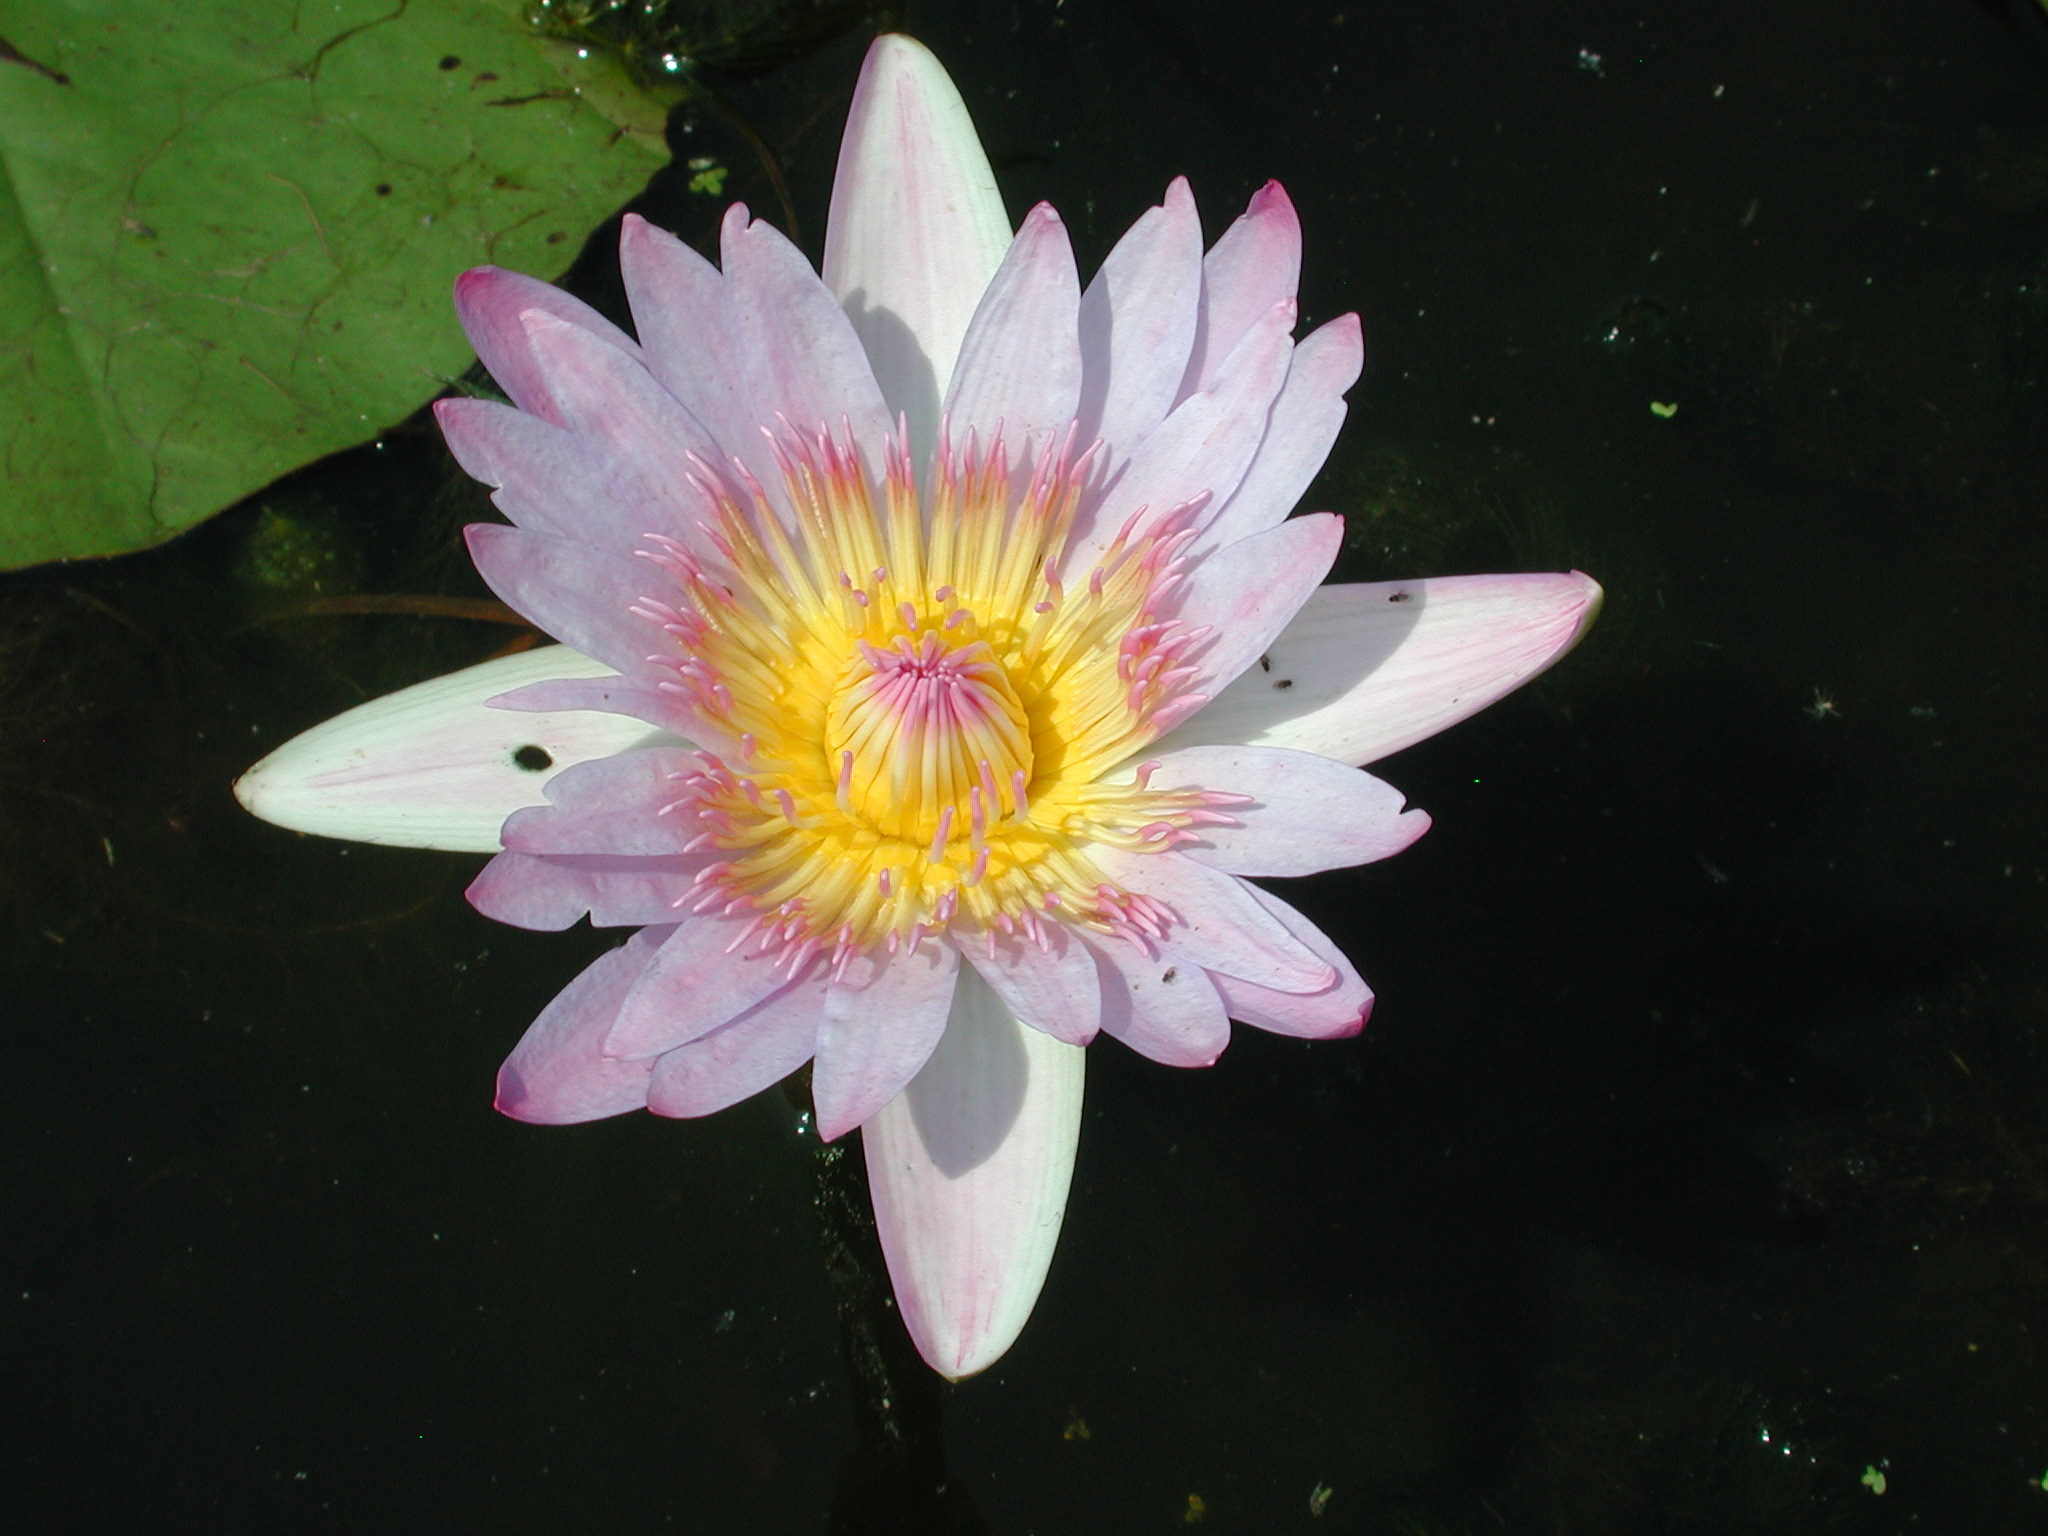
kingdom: Plantae
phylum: Tracheophyta
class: Magnoliopsida
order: Nymphaeales
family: Nymphaeaceae
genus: Nymphaea
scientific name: Nymphaea nouchali
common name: Blue lotus
